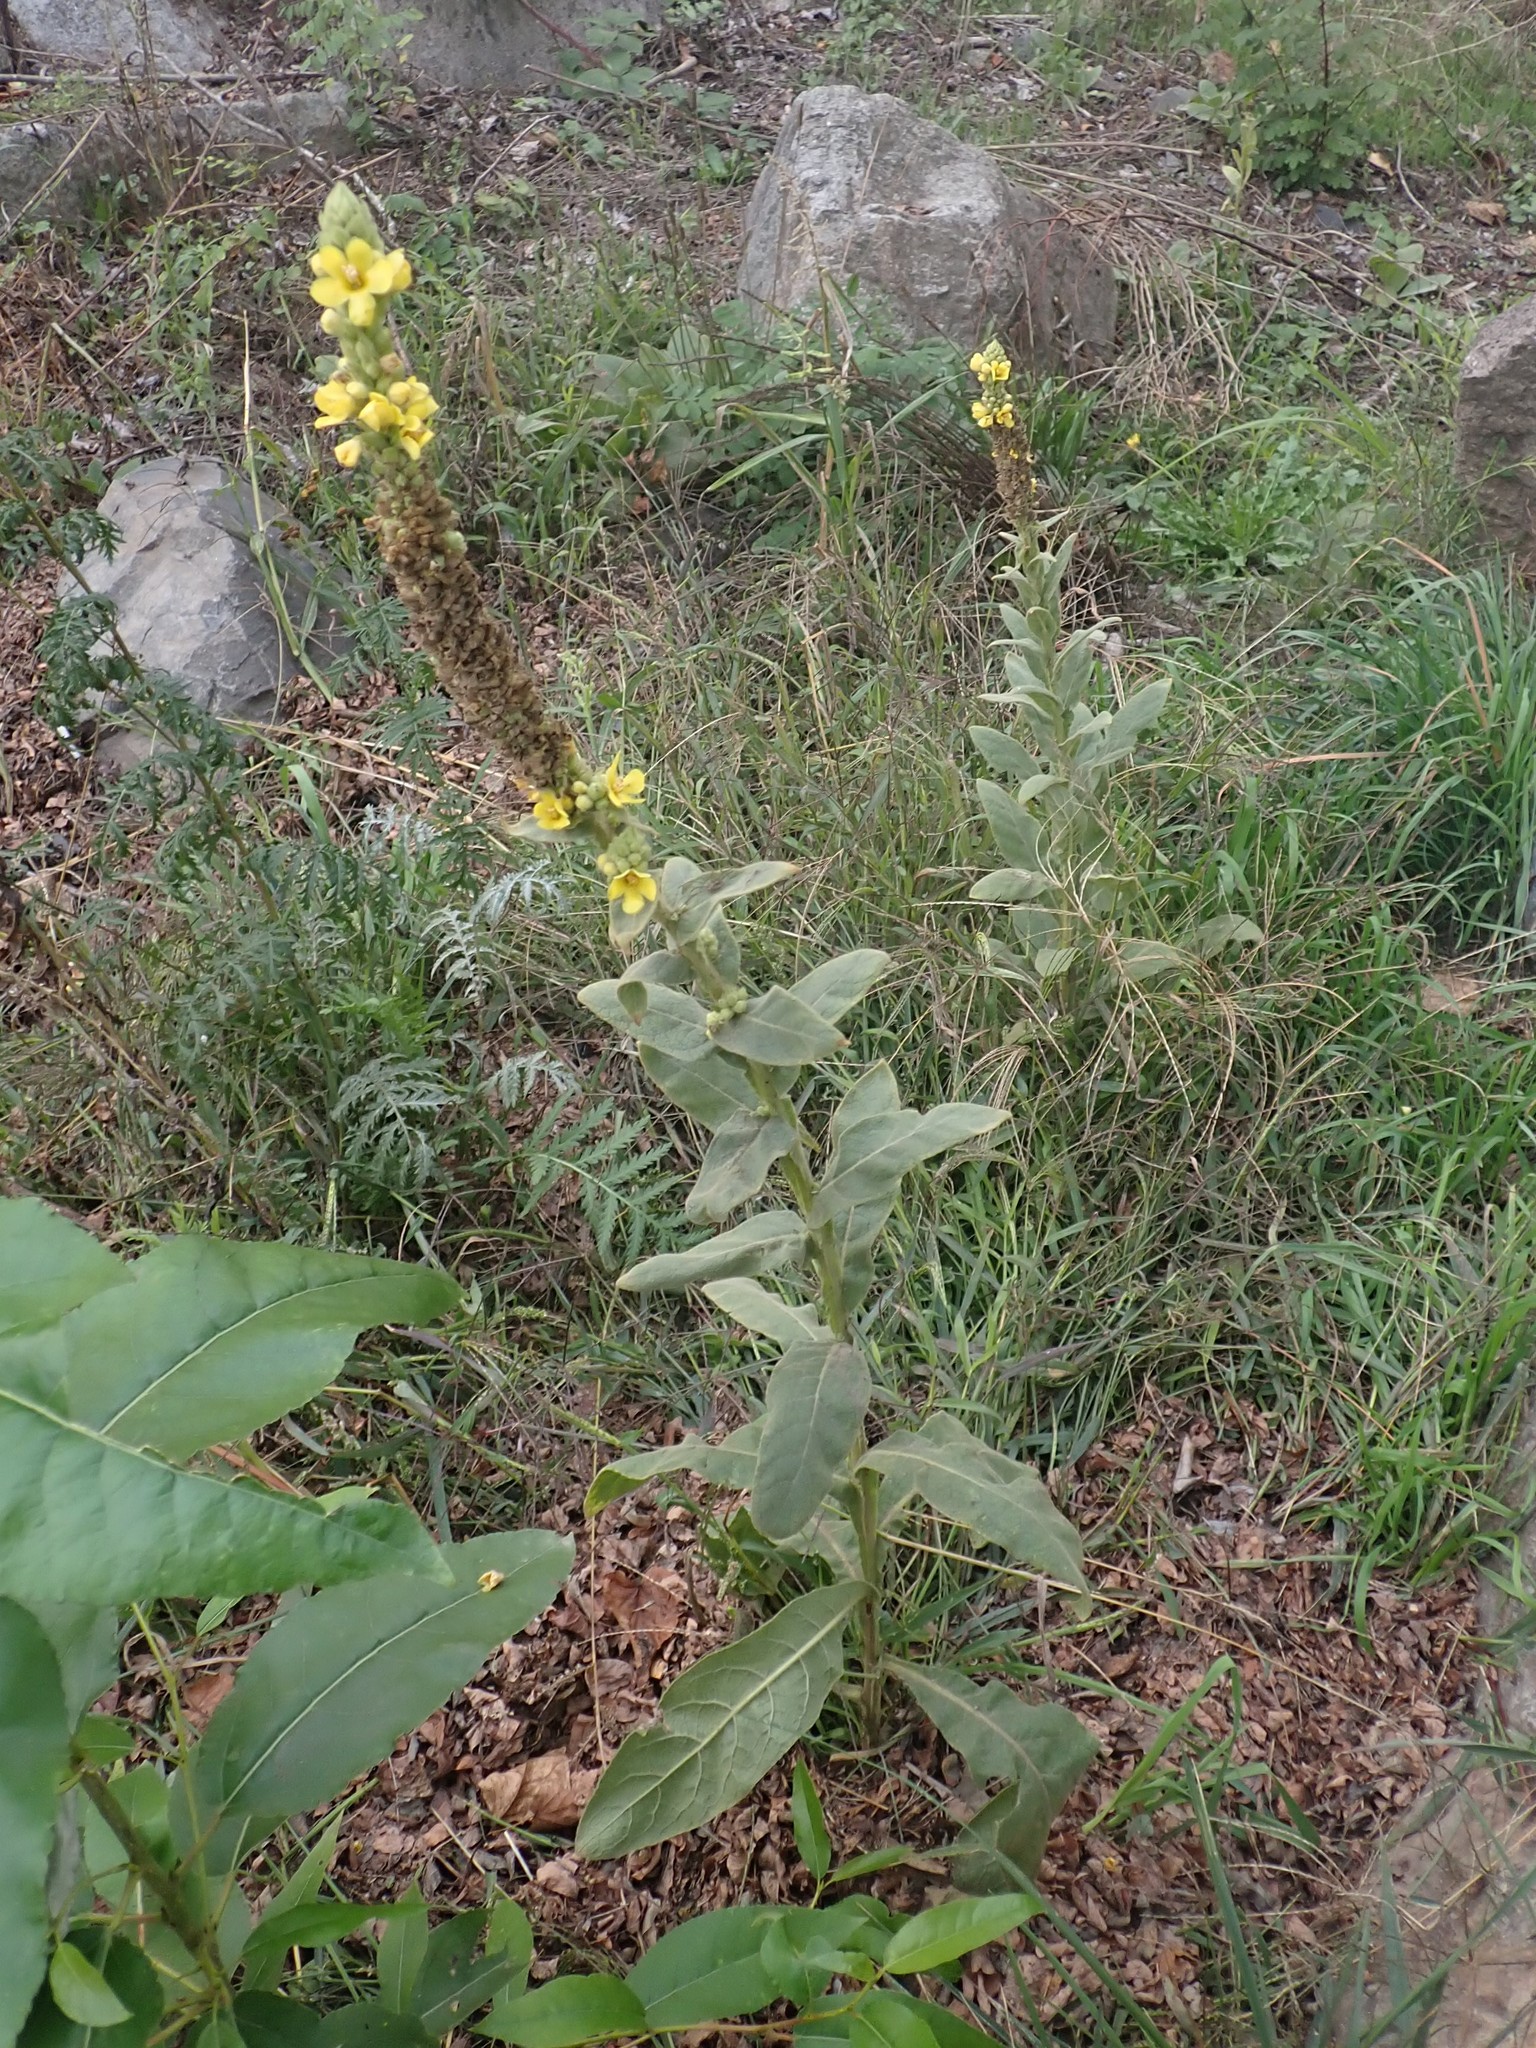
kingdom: Plantae
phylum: Tracheophyta
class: Magnoliopsida
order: Lamiales
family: Scrophulariaceae
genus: Verbascum
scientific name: Verbascum thapsus
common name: Common mullein
